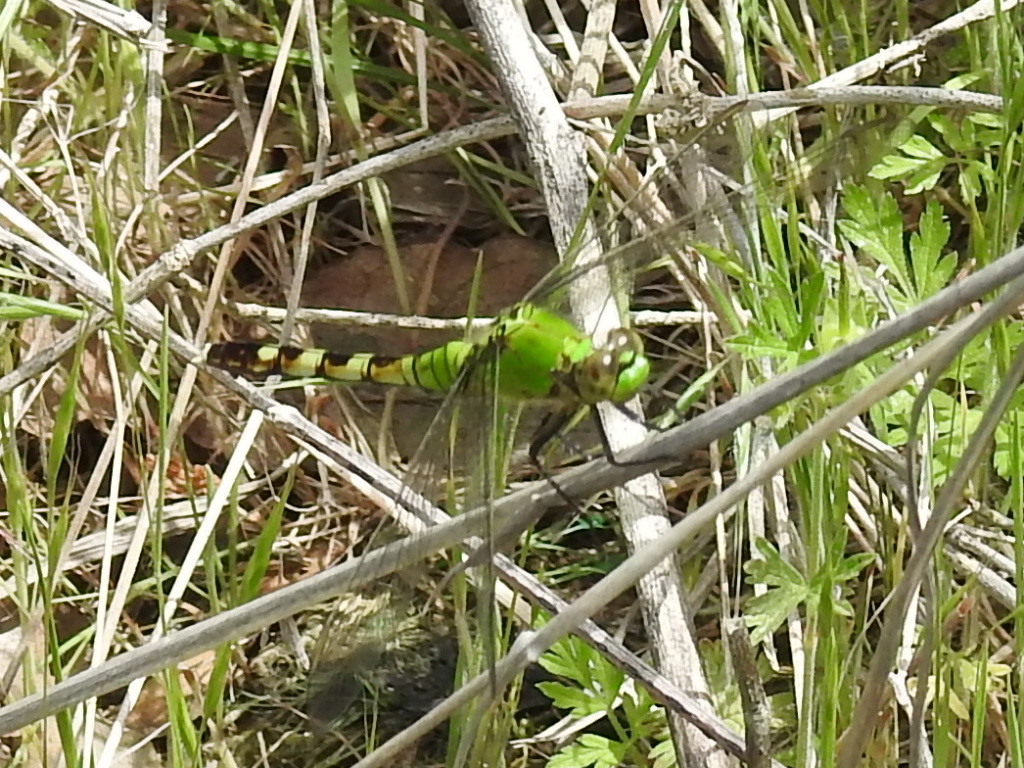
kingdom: Animalia
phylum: Arthropoda
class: Insecta
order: Odonata
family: Libellulidae
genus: Erythemis
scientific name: Erythemis simplicicollis
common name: Eastern pondhawk
